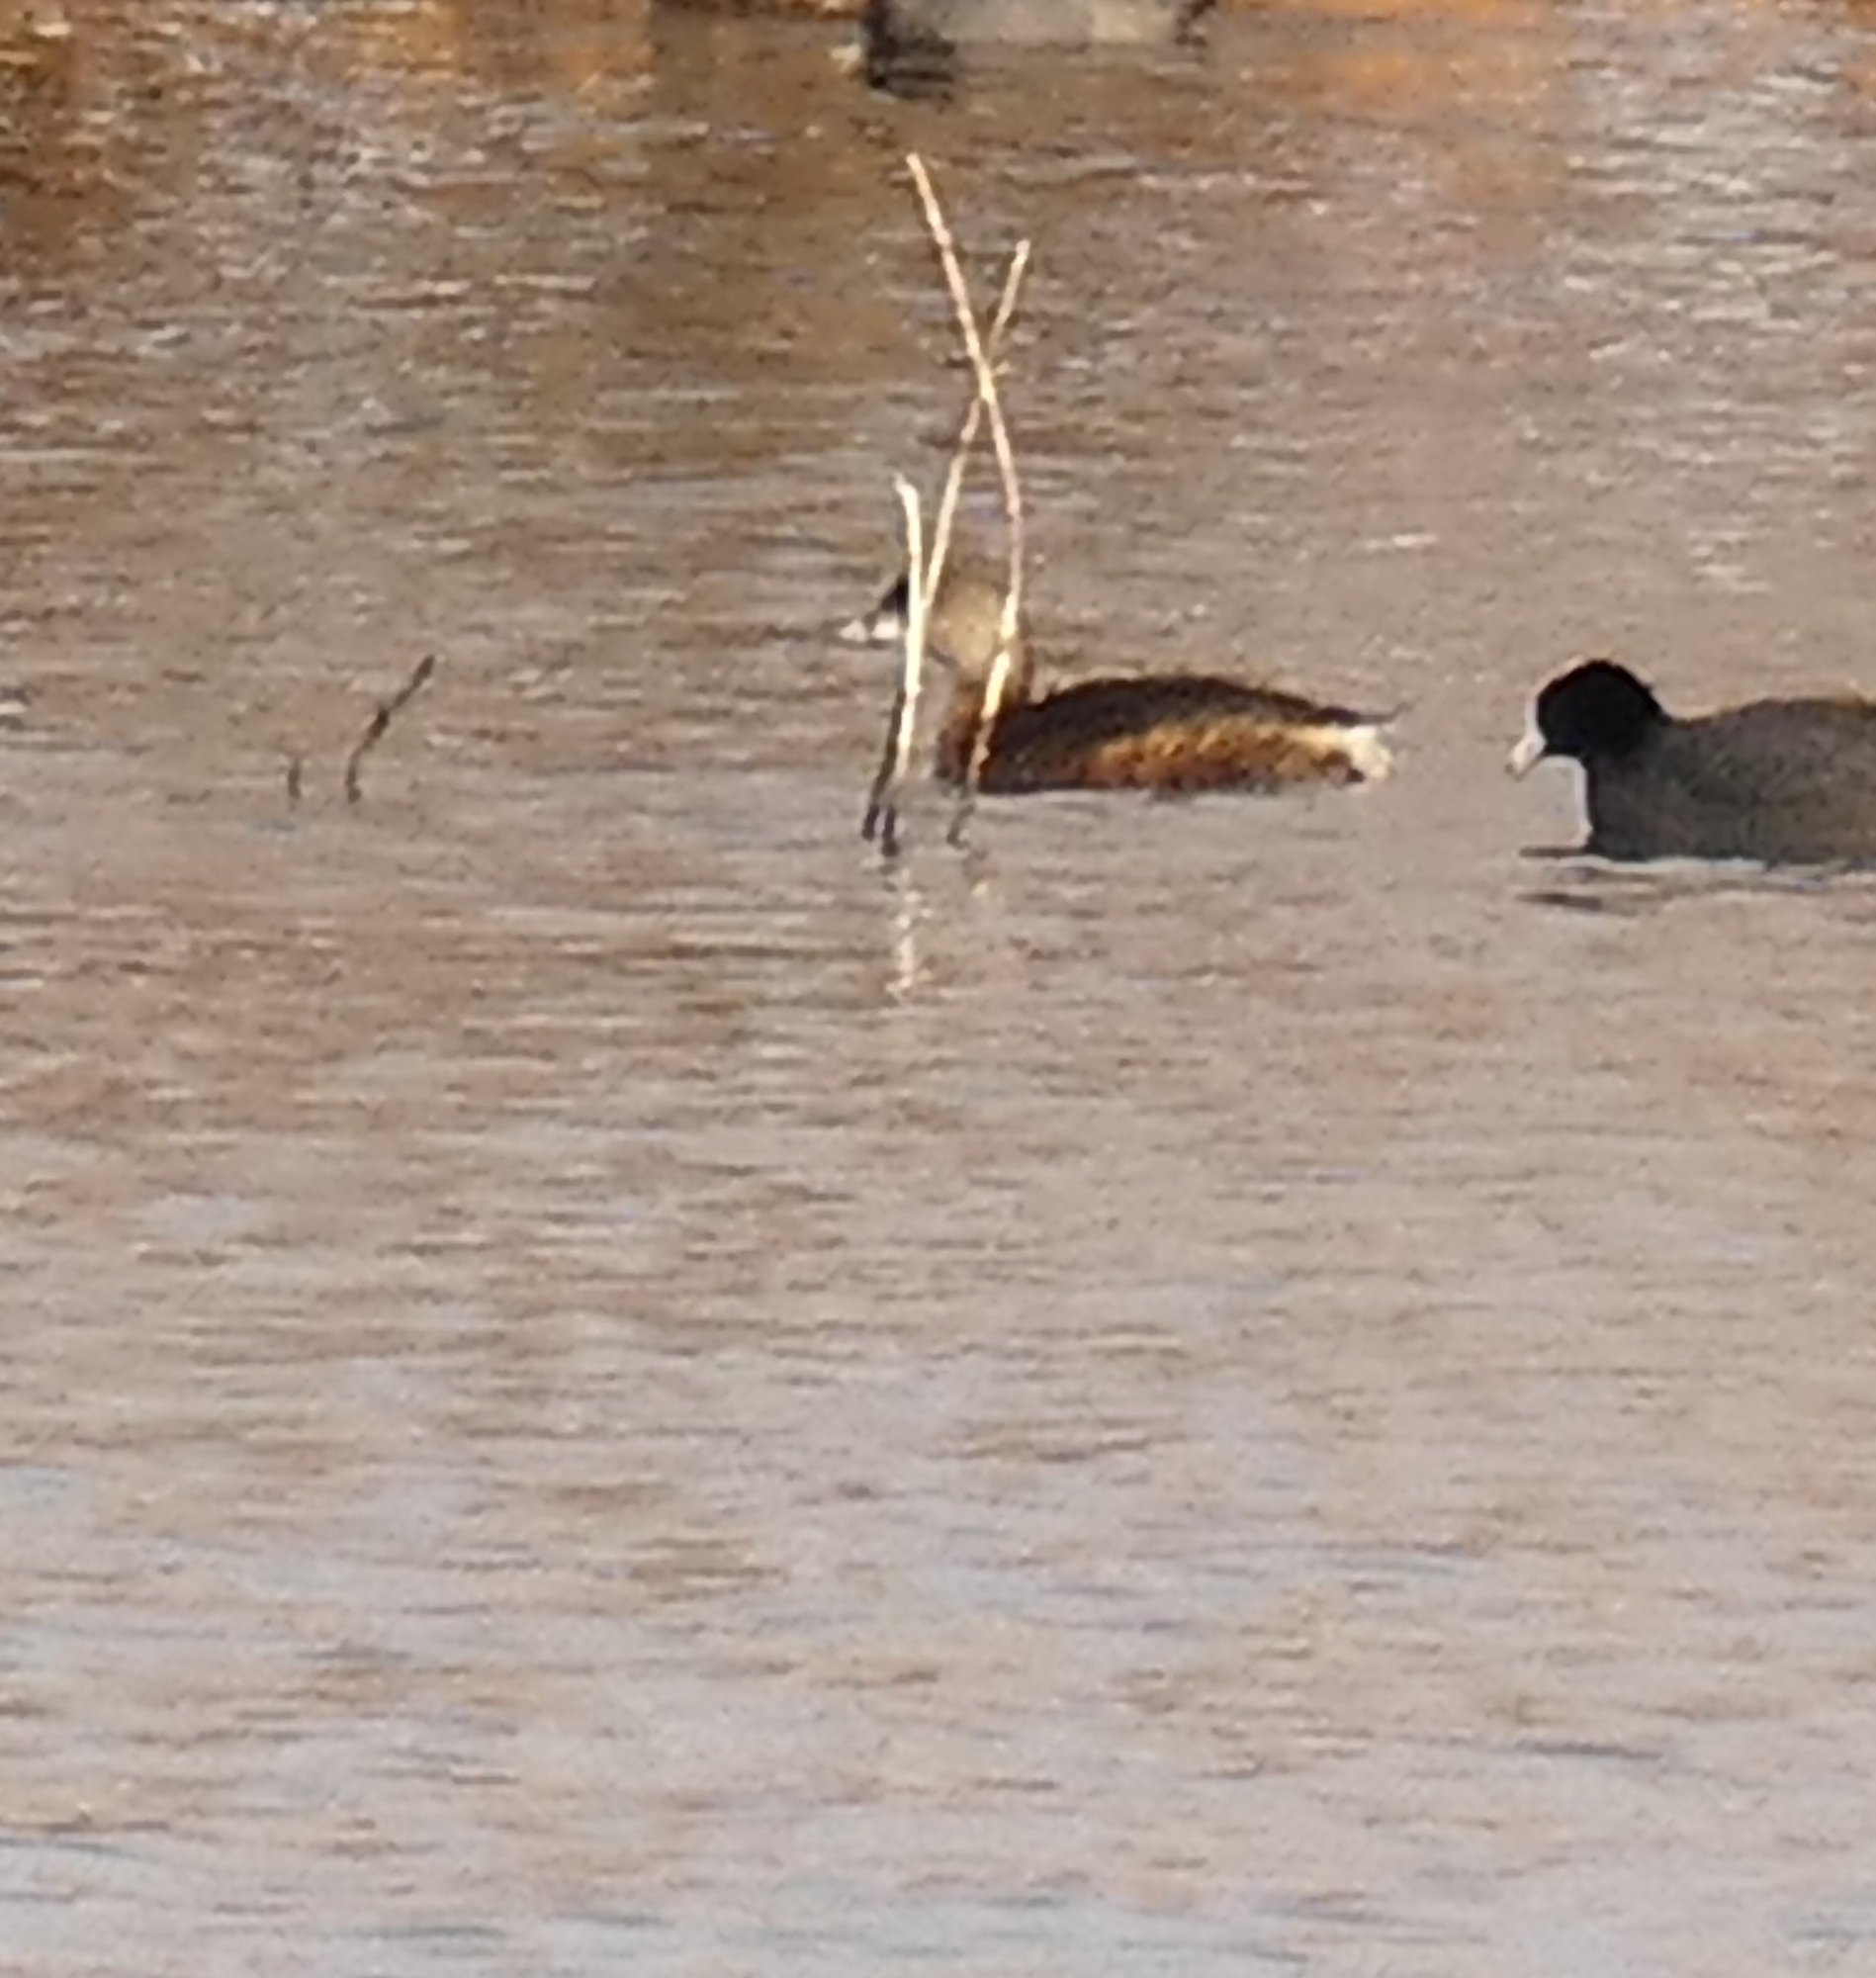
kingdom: Animalia
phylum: Chordata
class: Aves
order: Podicipediformes
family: Podicipedidae
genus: Podilymbus
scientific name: Podilymbus podiceps
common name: Pied-billed grebe
